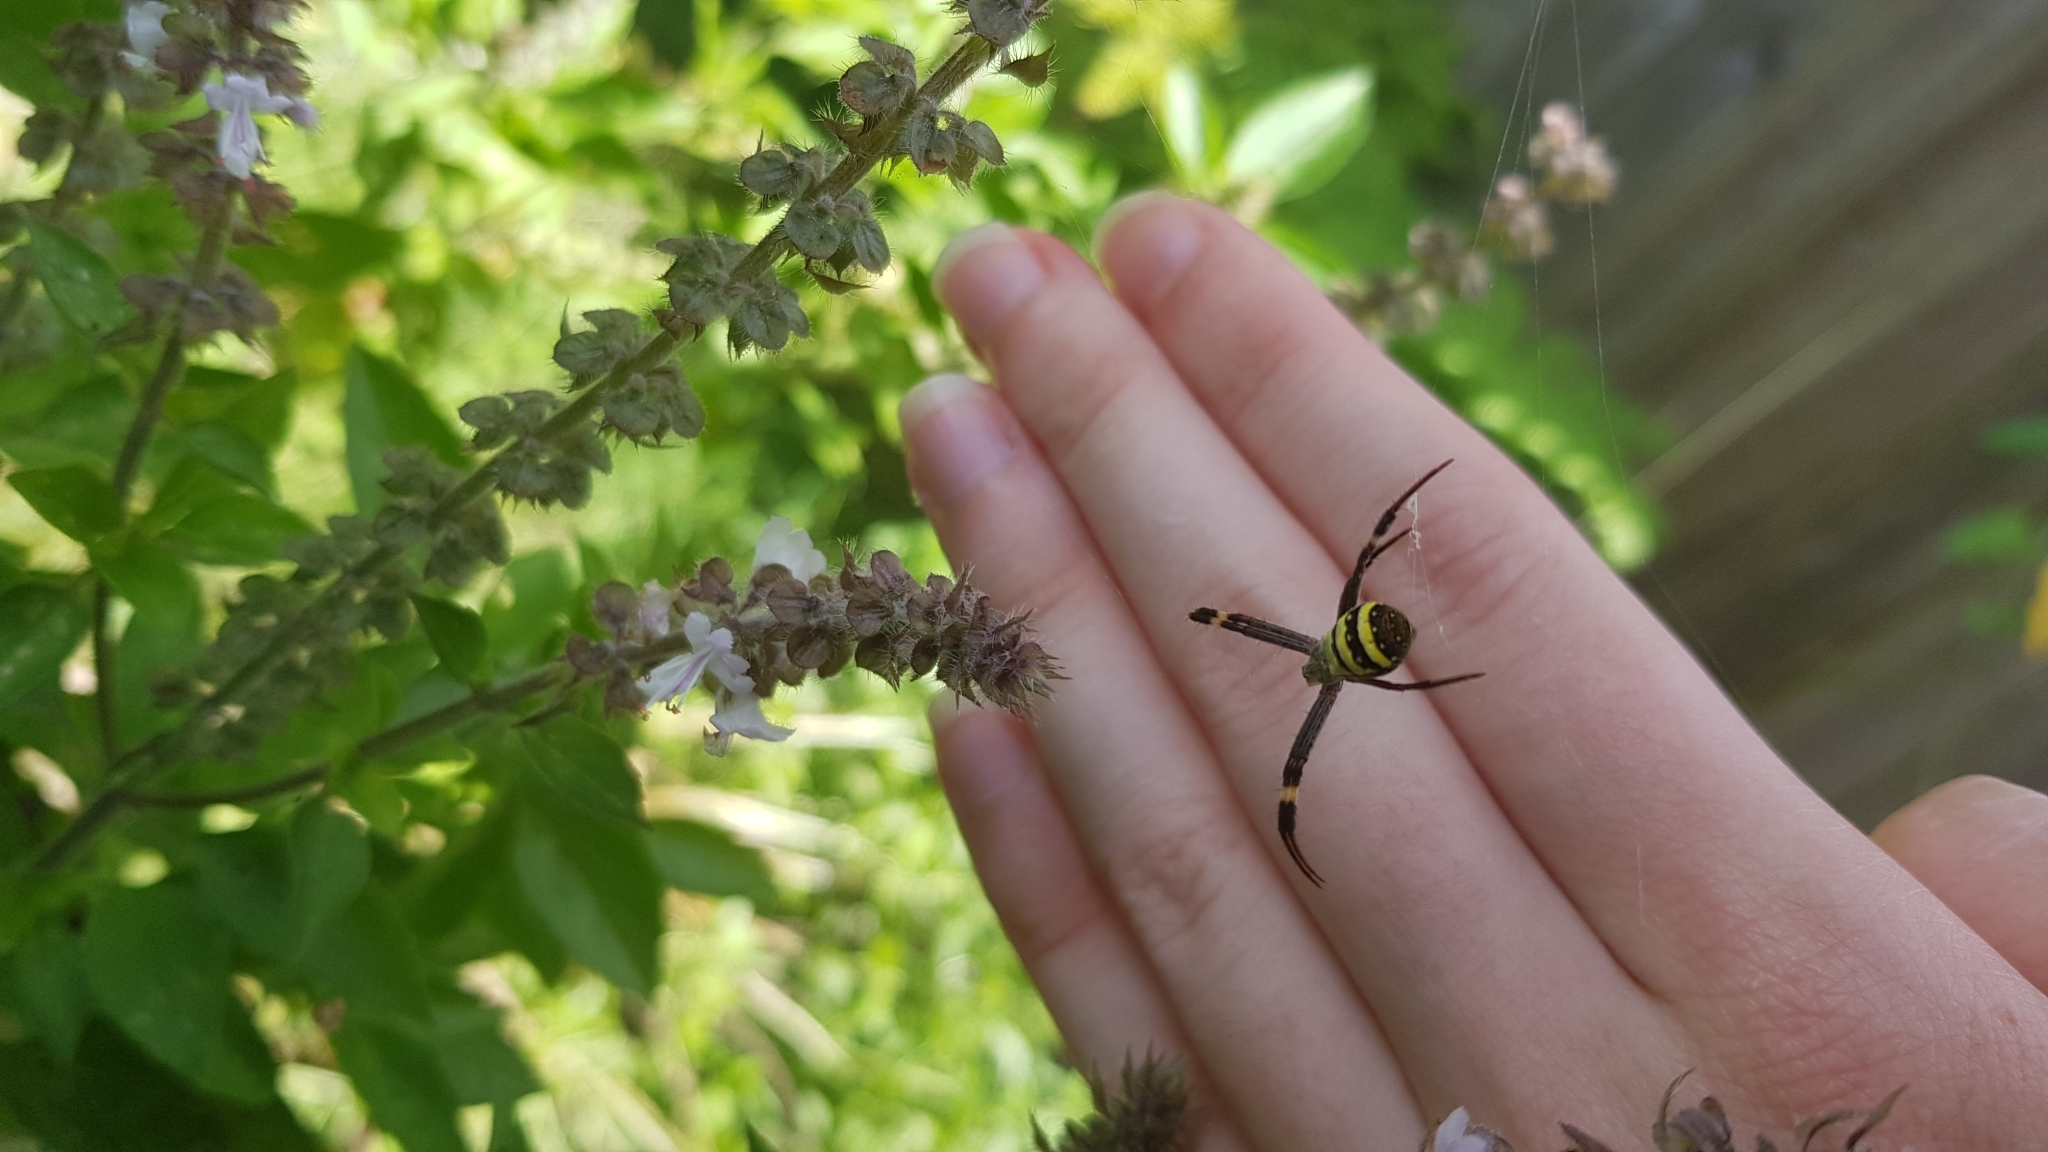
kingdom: Animalia
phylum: Arthropoda
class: Arachnida
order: Araneae
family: Araneidae
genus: Argiope
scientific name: Argiope keyserlingi
